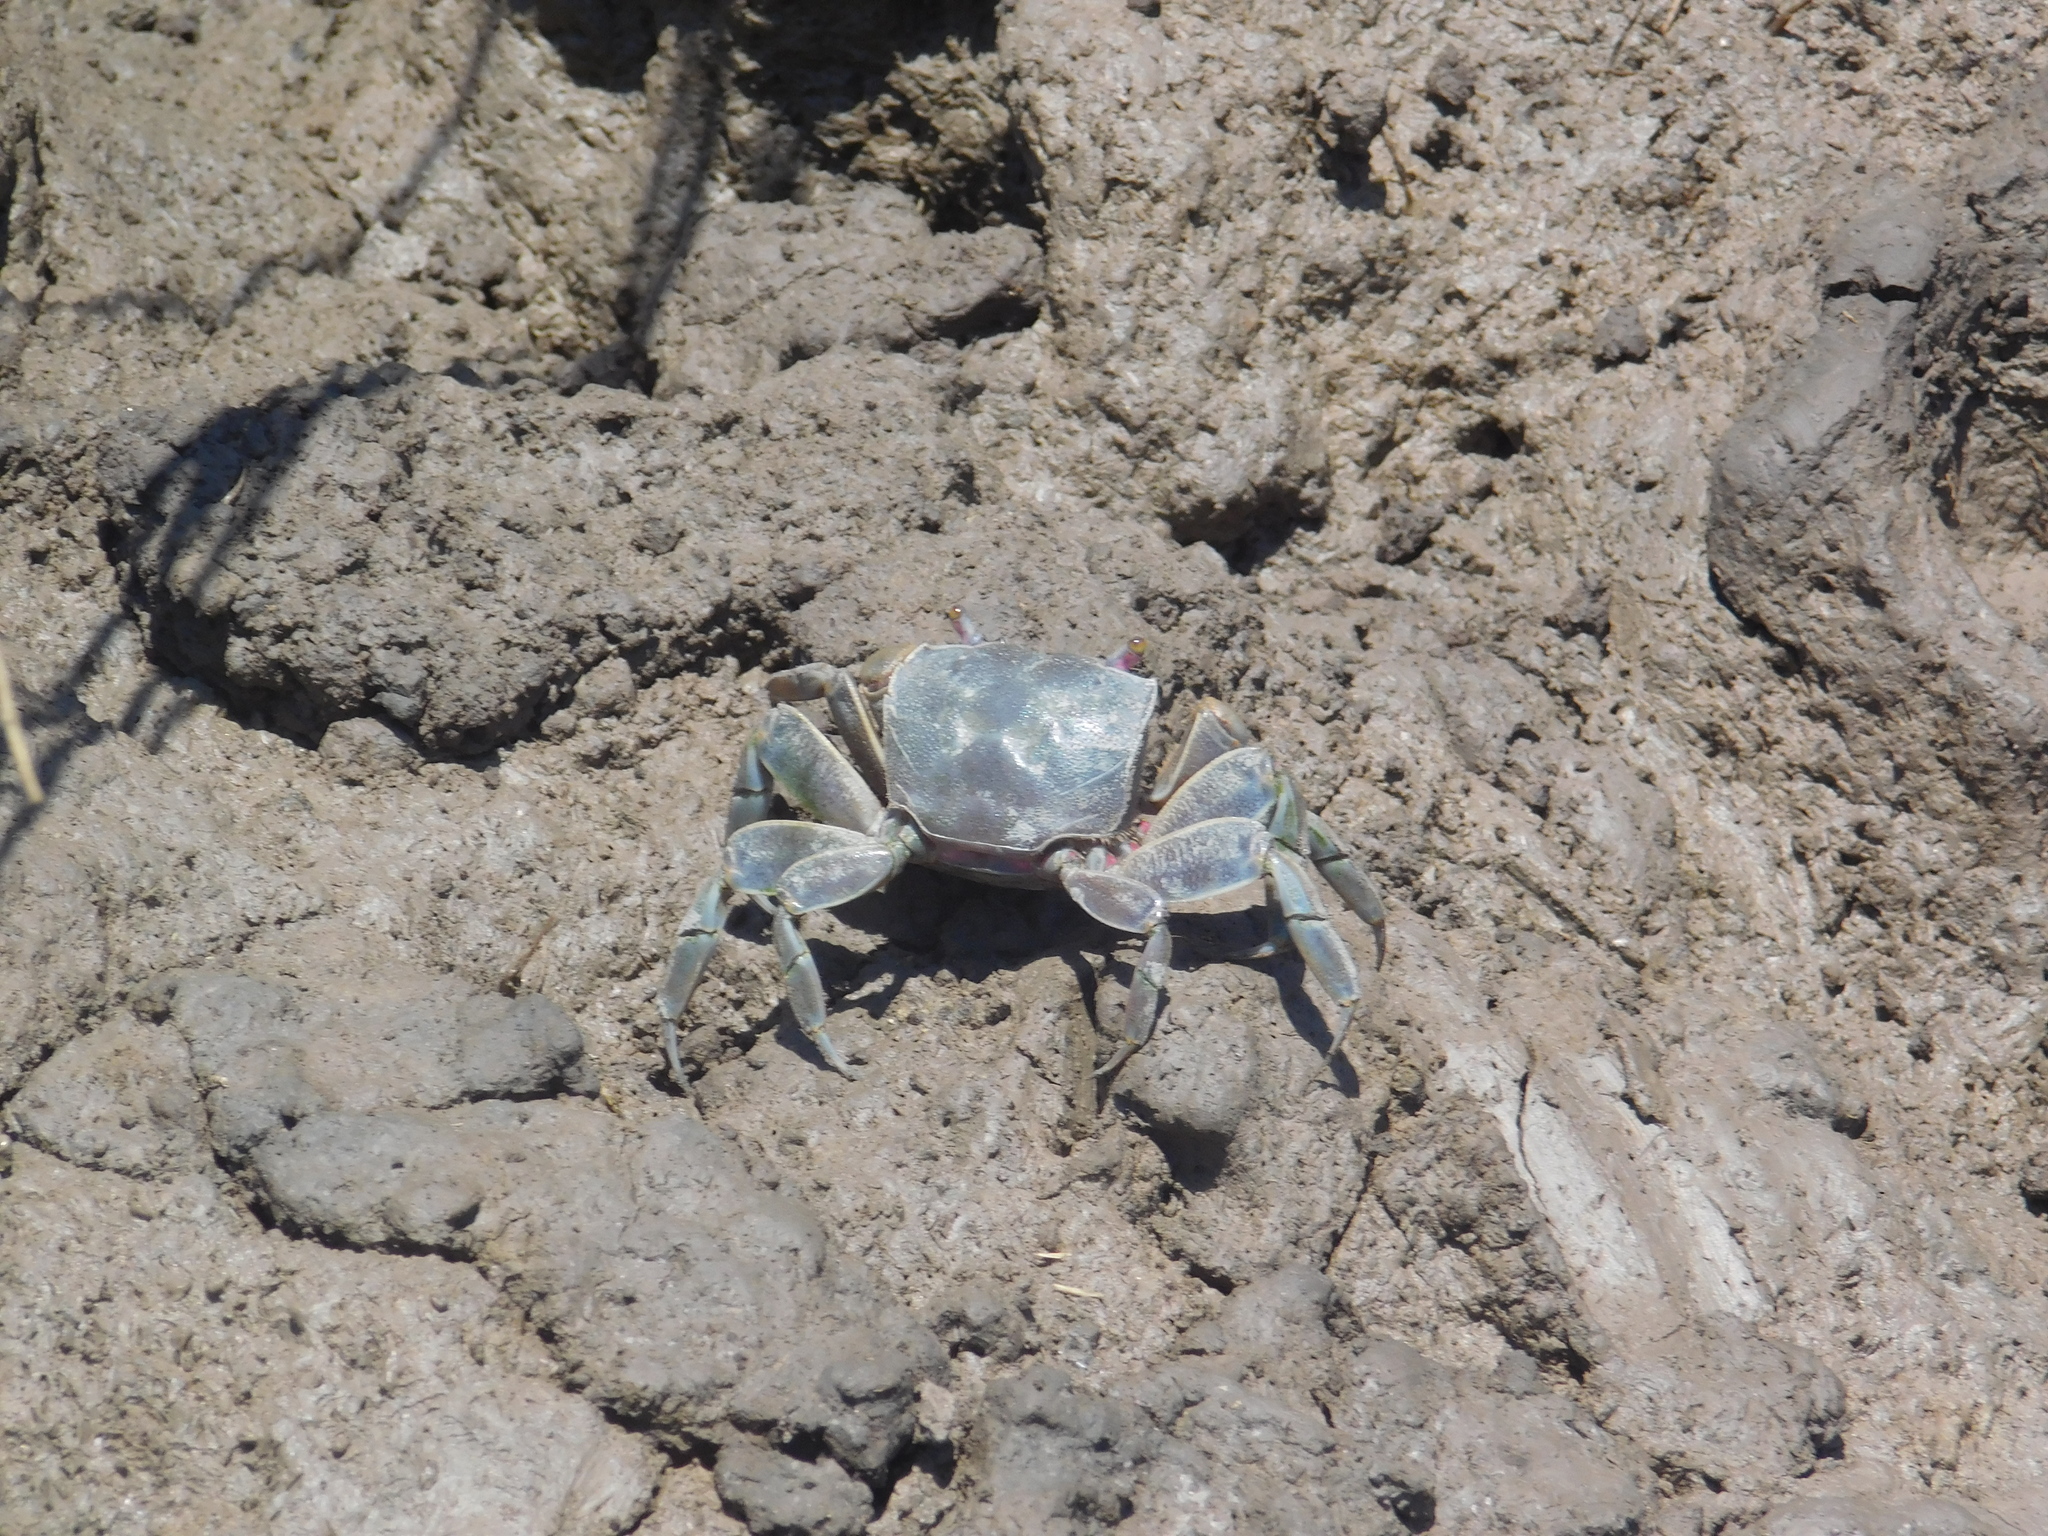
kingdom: Animalia
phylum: Arthropoda
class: Malacostraca
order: Decapoda
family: Varunidae
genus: Neohelice
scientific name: Neohelice granulata
